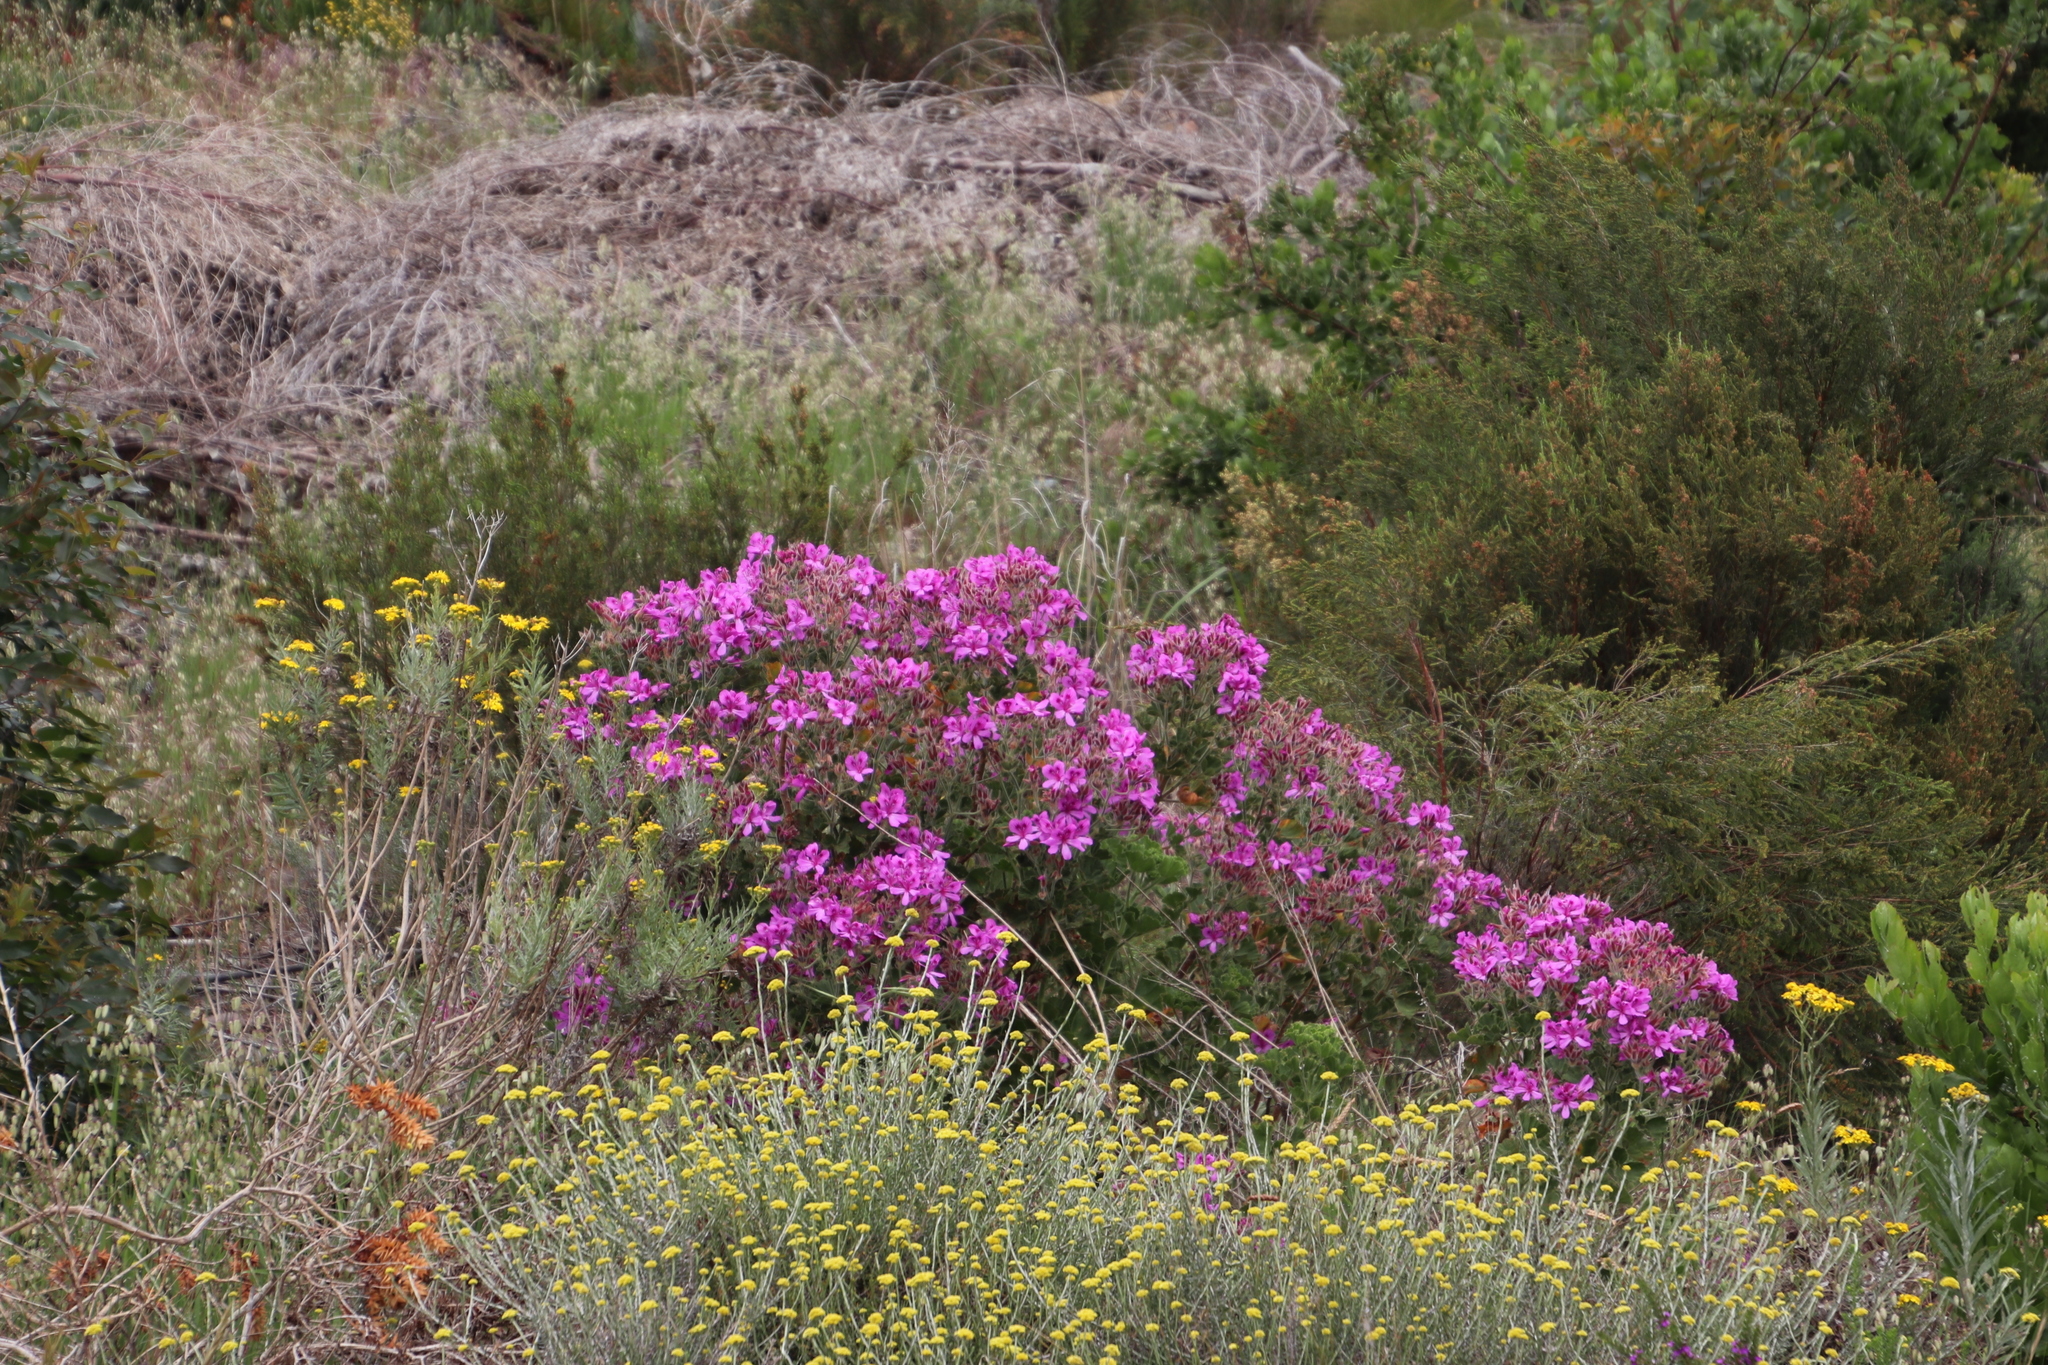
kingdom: Plantae
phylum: Tracheophyta
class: Magnoliopsida
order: Geraniales
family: Geraniaceae
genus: Pelargonium
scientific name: Pelargonium cucullatum
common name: Tree pelargonium
